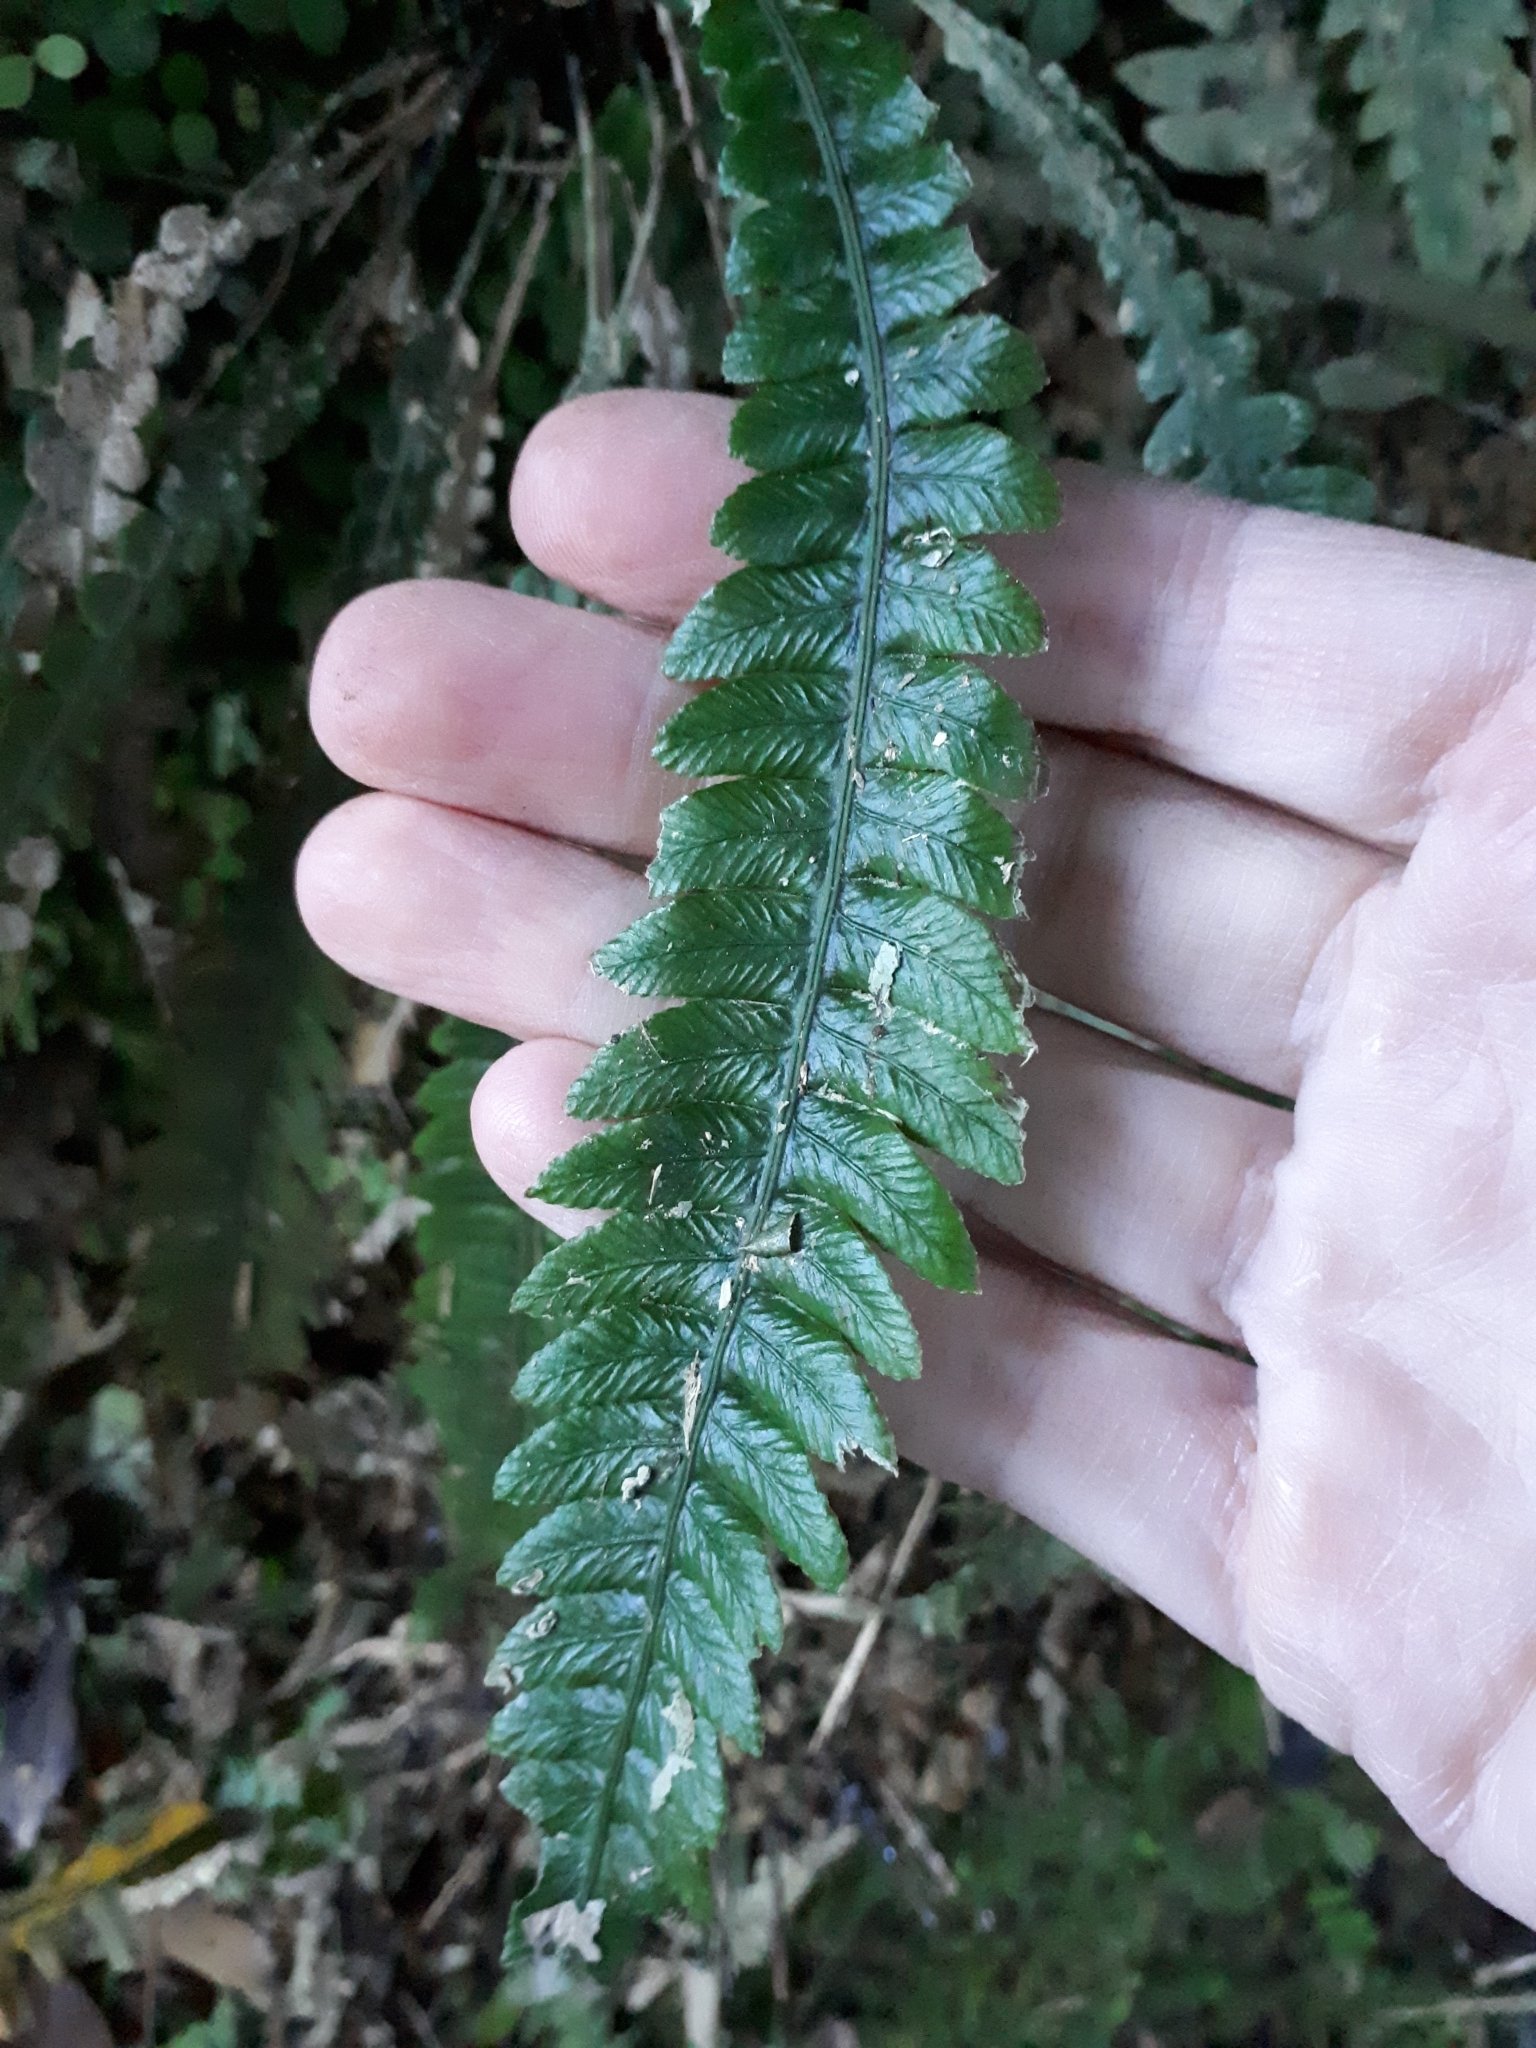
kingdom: Plantae
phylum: Tracheophyta
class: Polypodiopsida
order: Polypodiales
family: Blechnaceae
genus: Austroblechnum
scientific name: Austroblechnum lanceolatum
